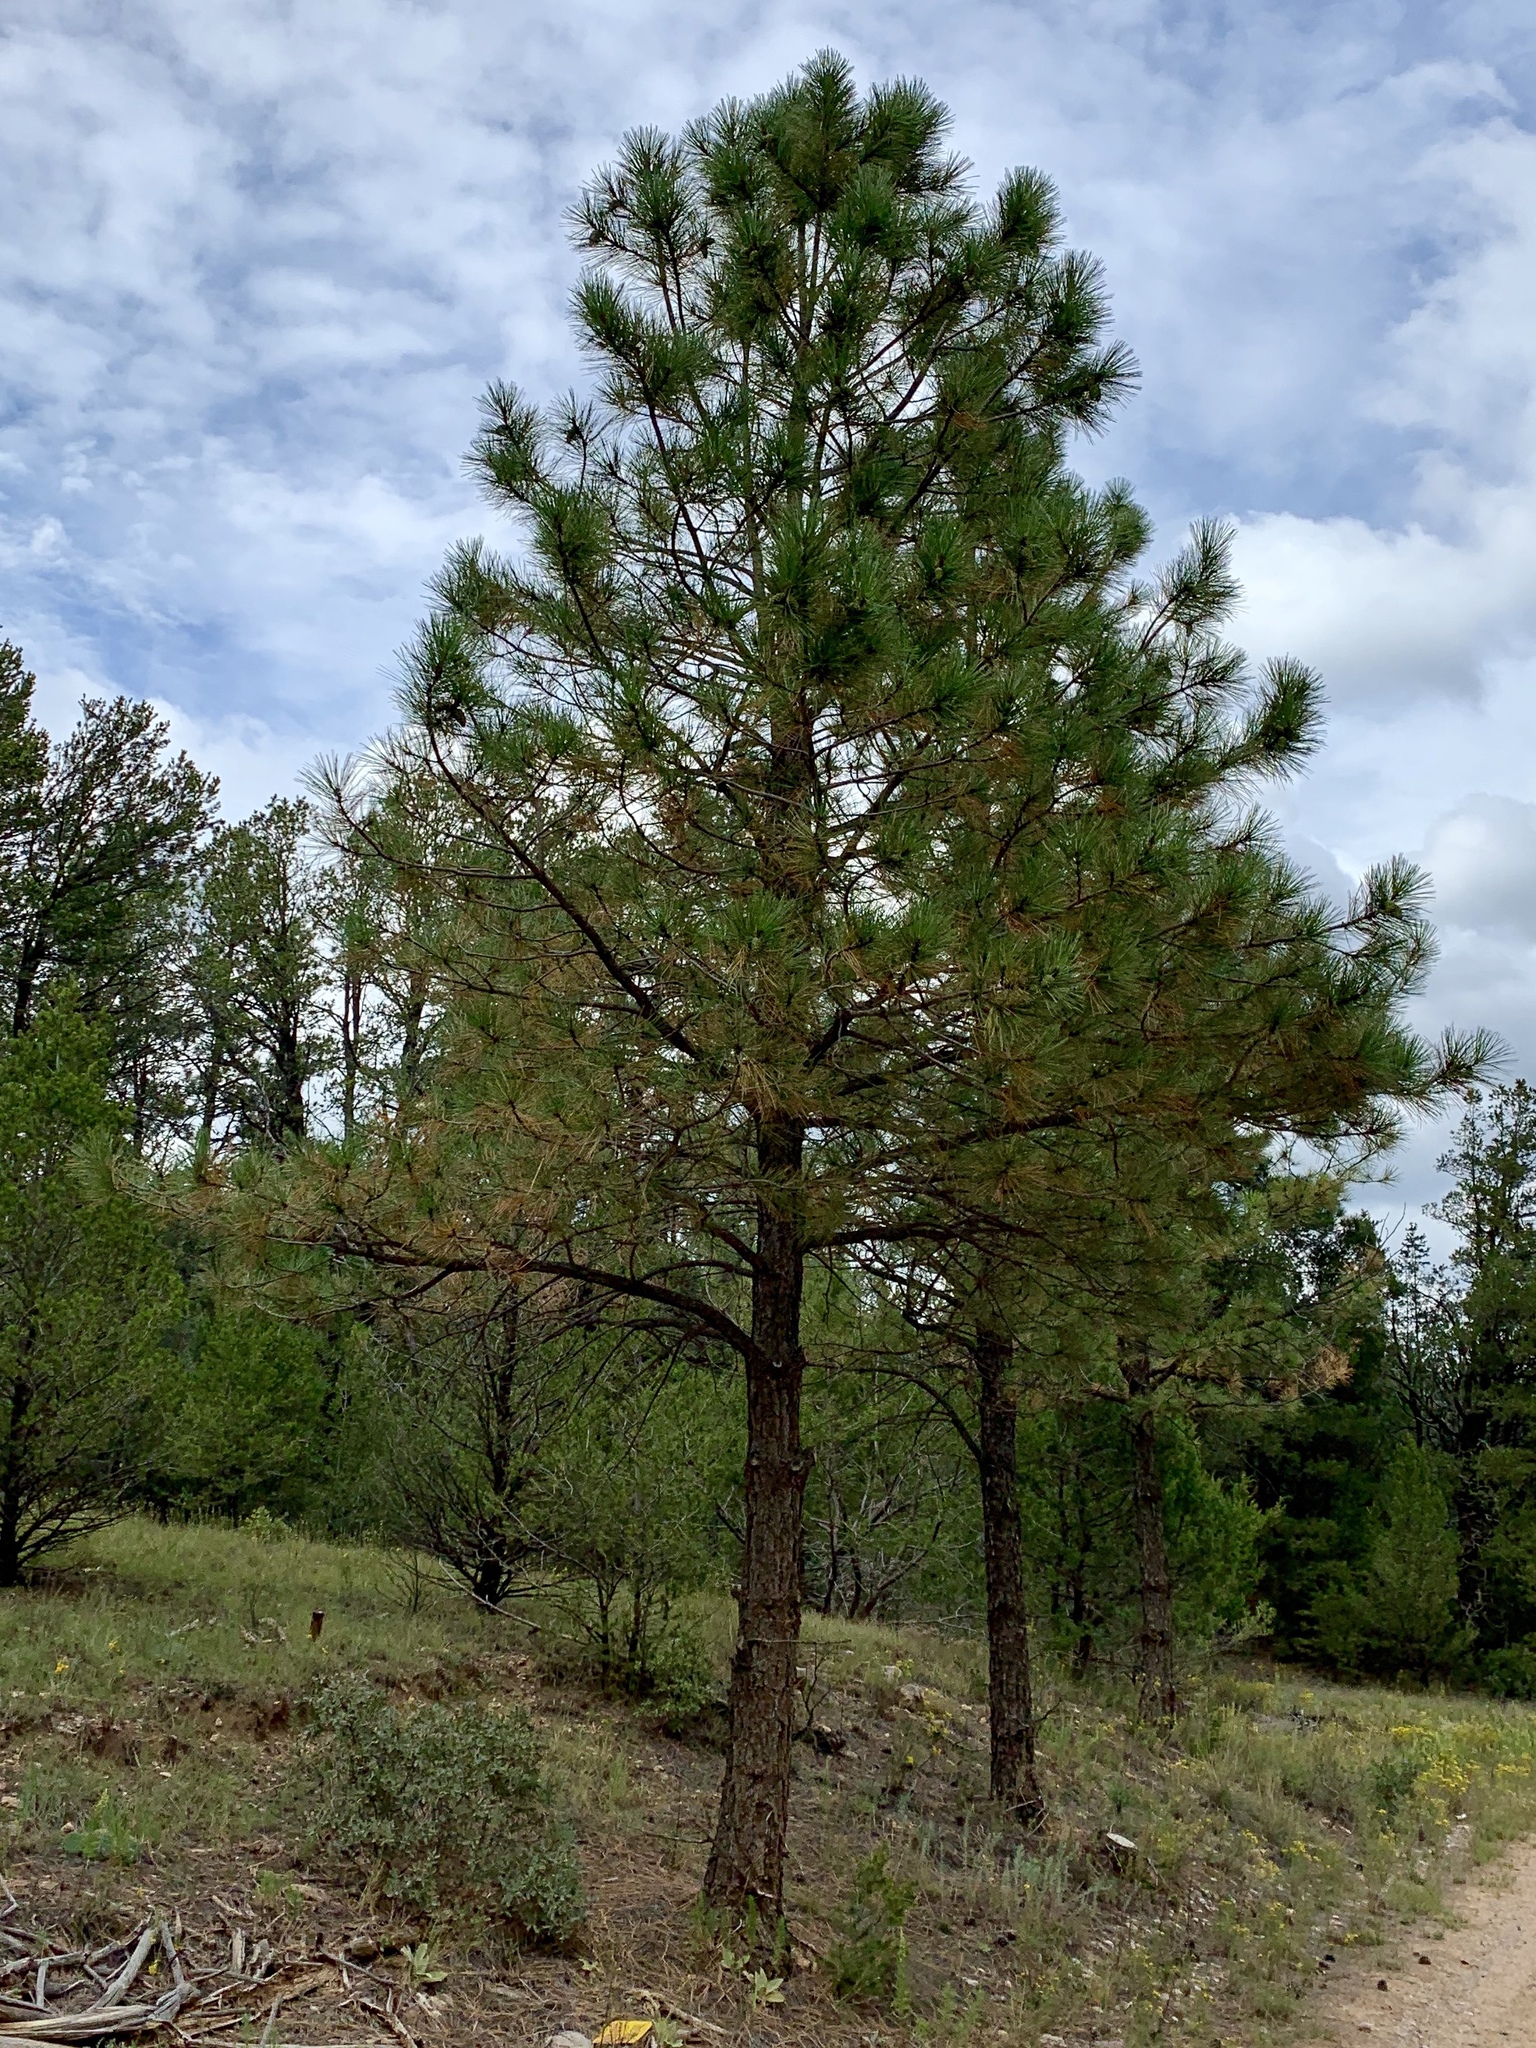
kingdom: Plantae
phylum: Tracheophyta
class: Pinopsida
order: Pinales
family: Pinaceae
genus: Pinus
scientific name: Pinus ponderosa
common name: Western yellow-pine
